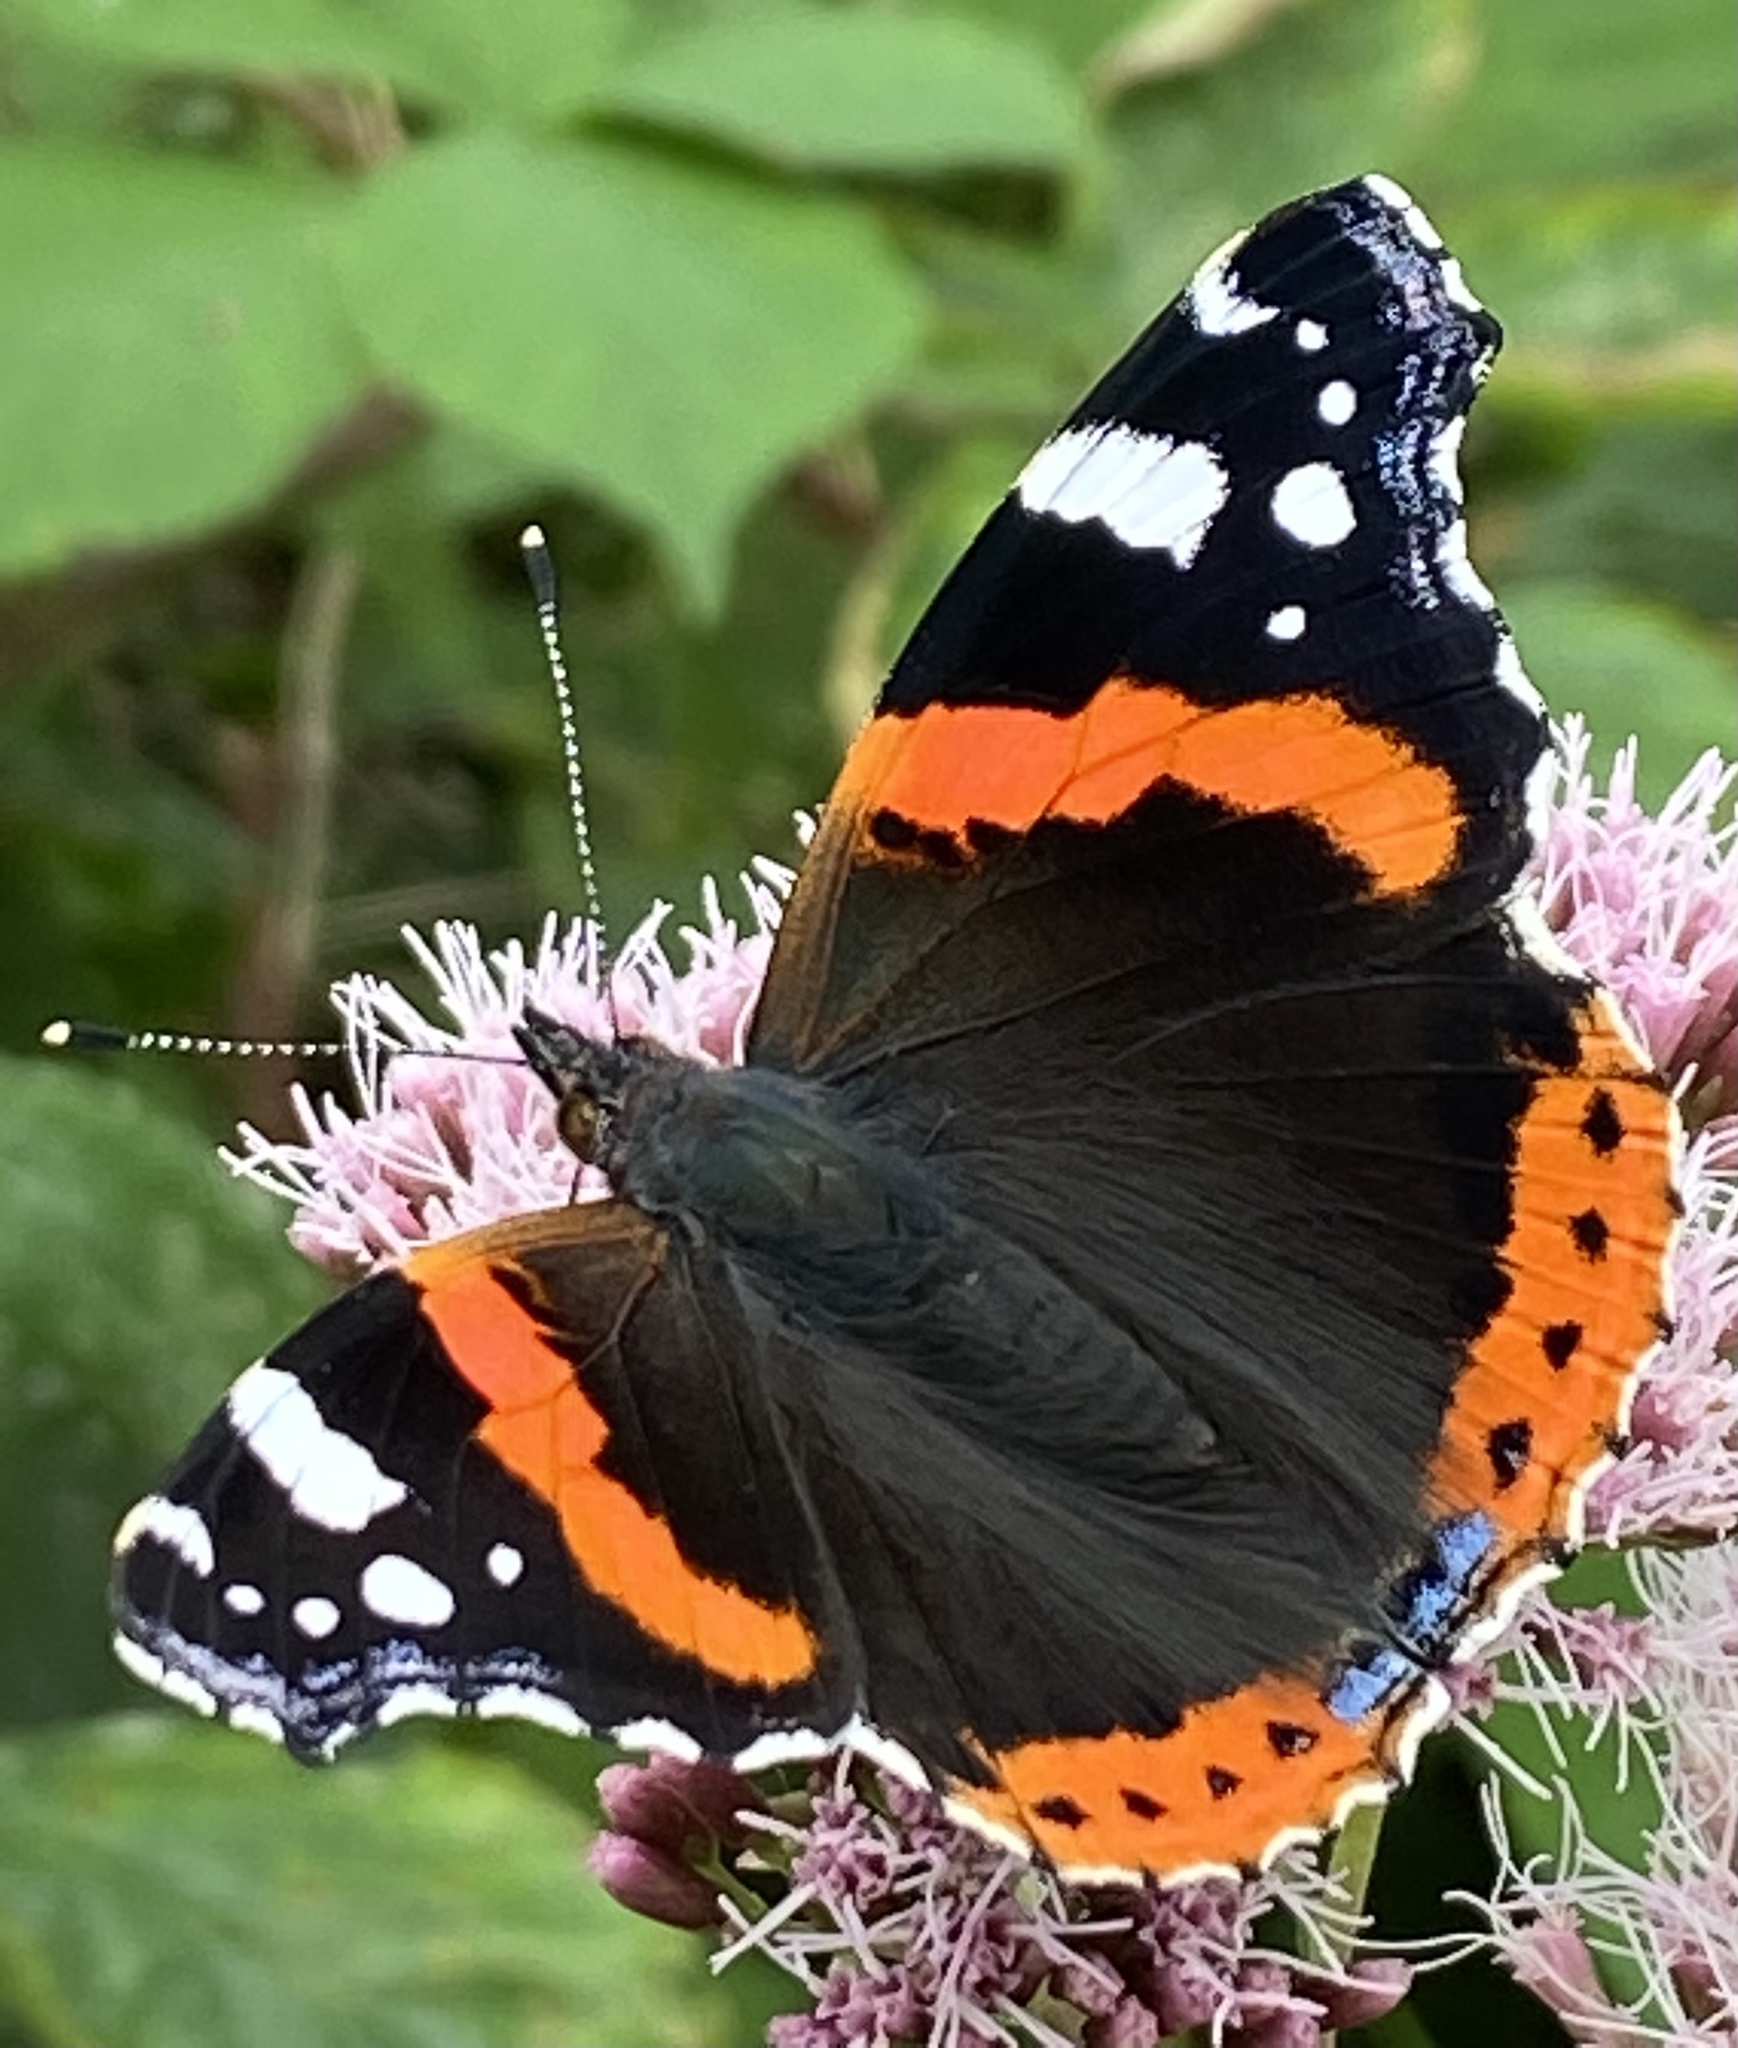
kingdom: Animalia
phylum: Arthropoda
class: Insecta
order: Lepidoptera
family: Nymphalidae
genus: Vanessa
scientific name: Vanessa atalanta
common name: Red admiral
